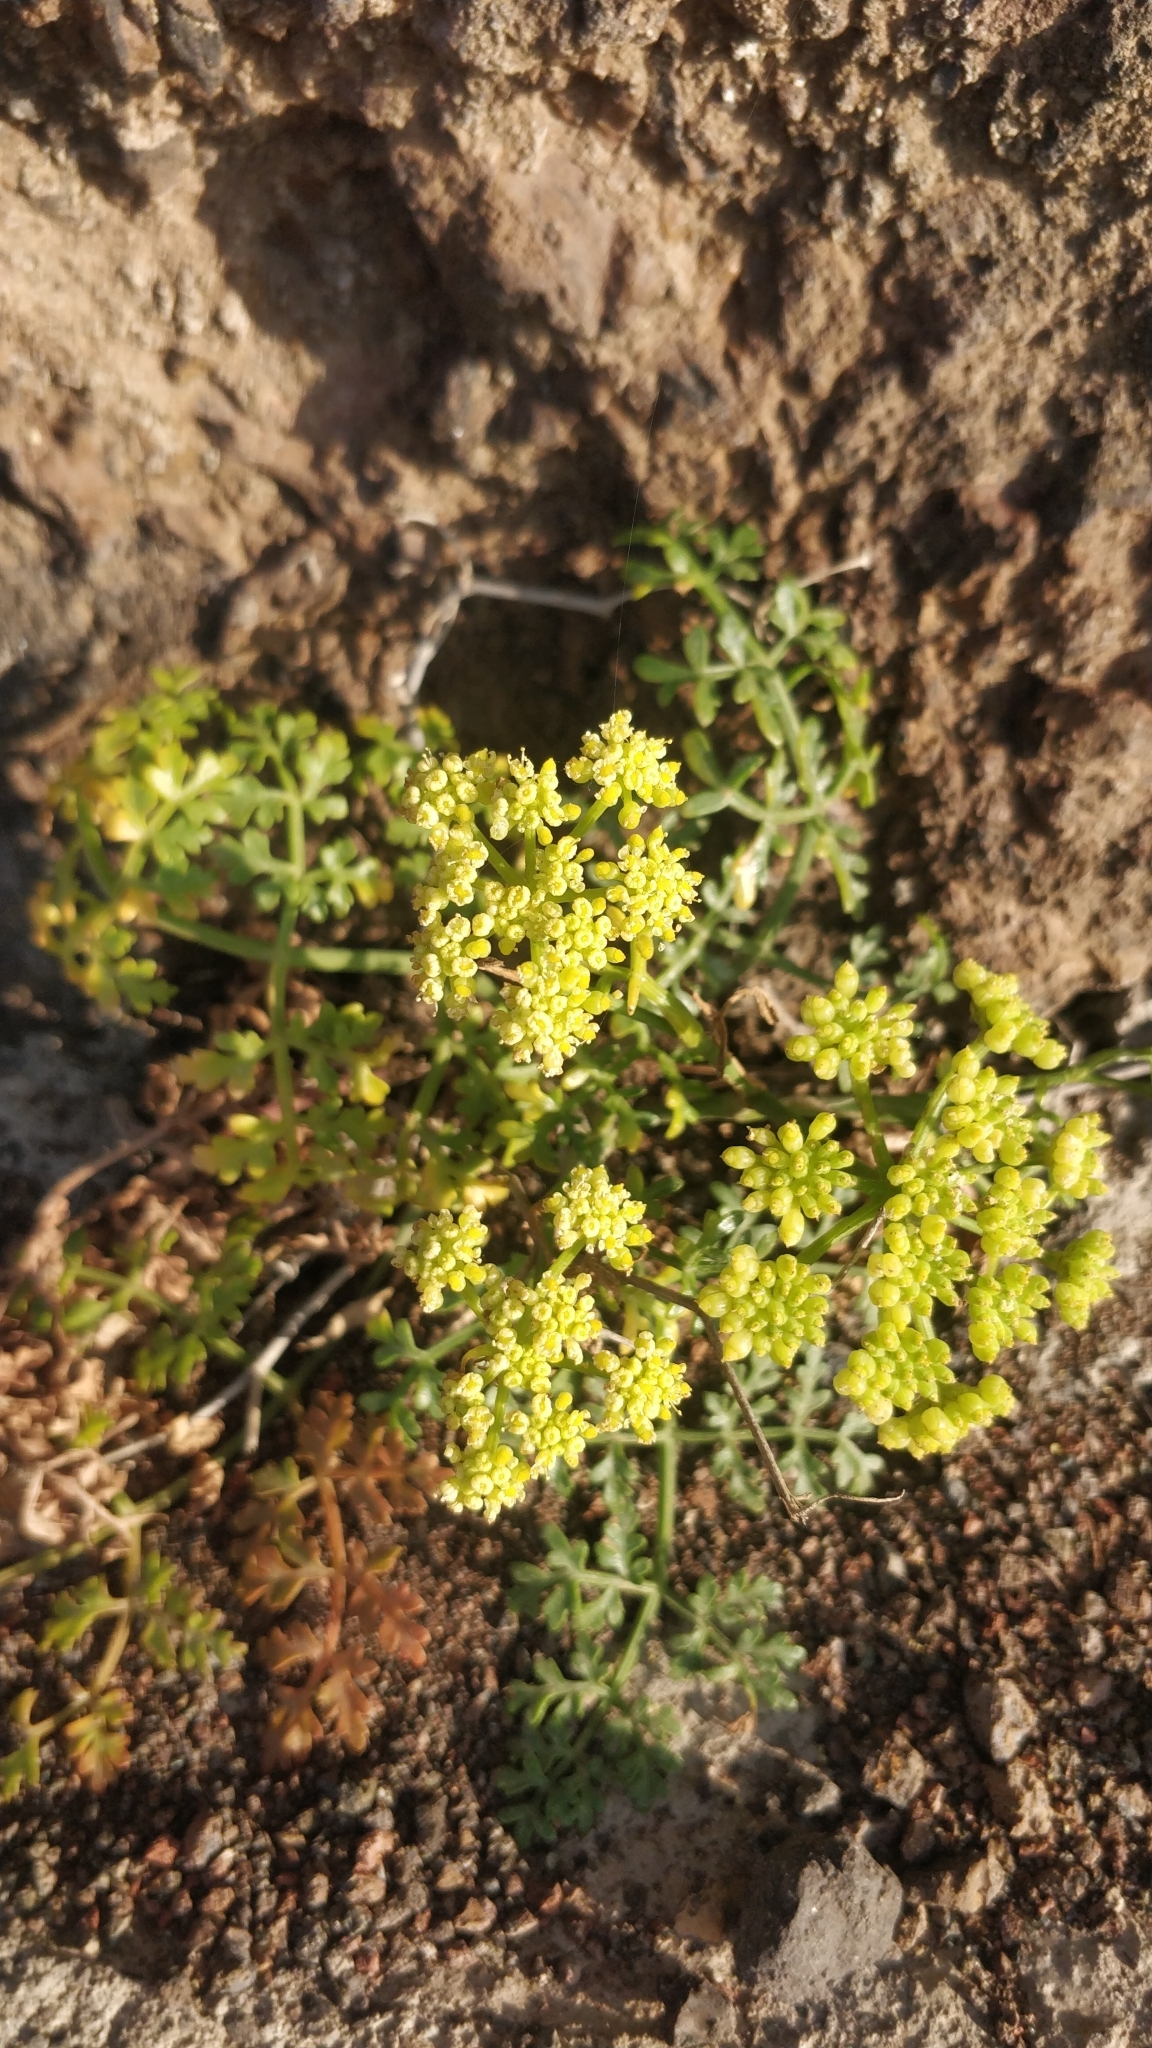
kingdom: Plantae
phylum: Tracheophyta
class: Magnoliopsida
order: Apiales
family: Apiaceae
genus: Rutheopsis
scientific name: Rutheopsis tortuosa
